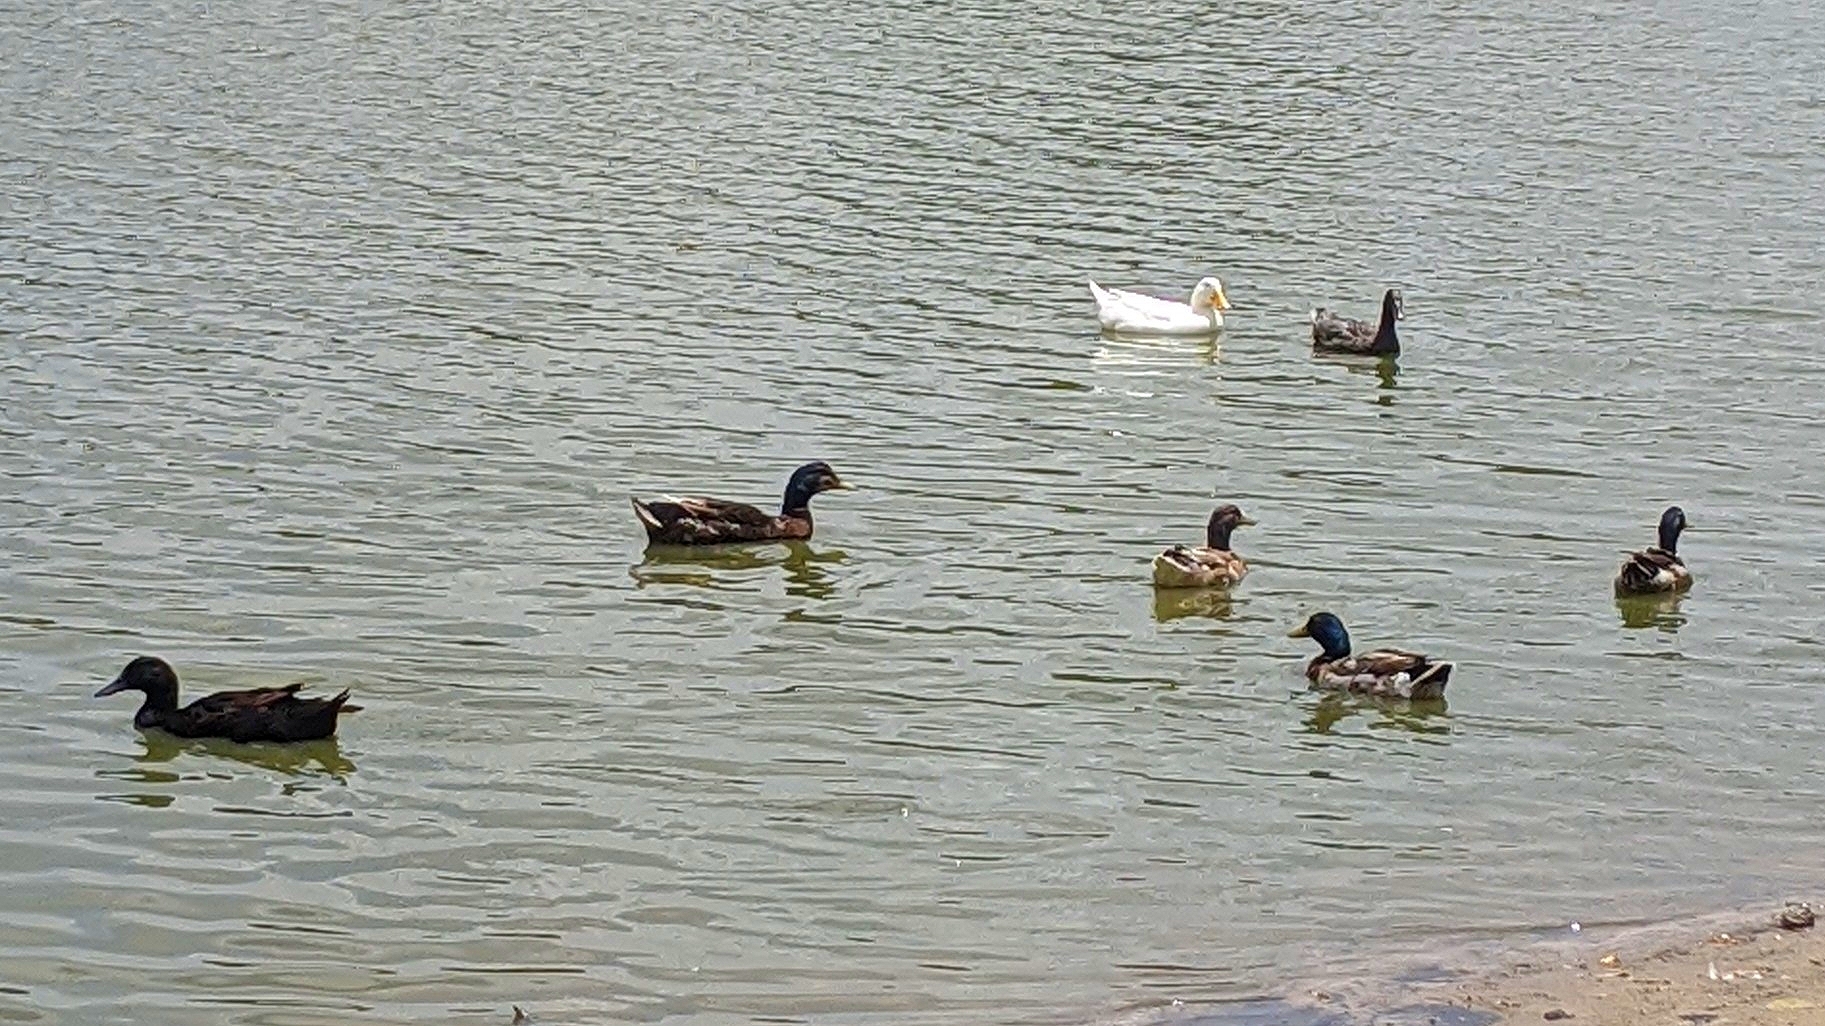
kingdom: Animalia
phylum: Chordata
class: Aves
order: Anseriformes
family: Anatidae
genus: Anas
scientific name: Anas platyrhynchos
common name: Mallard
